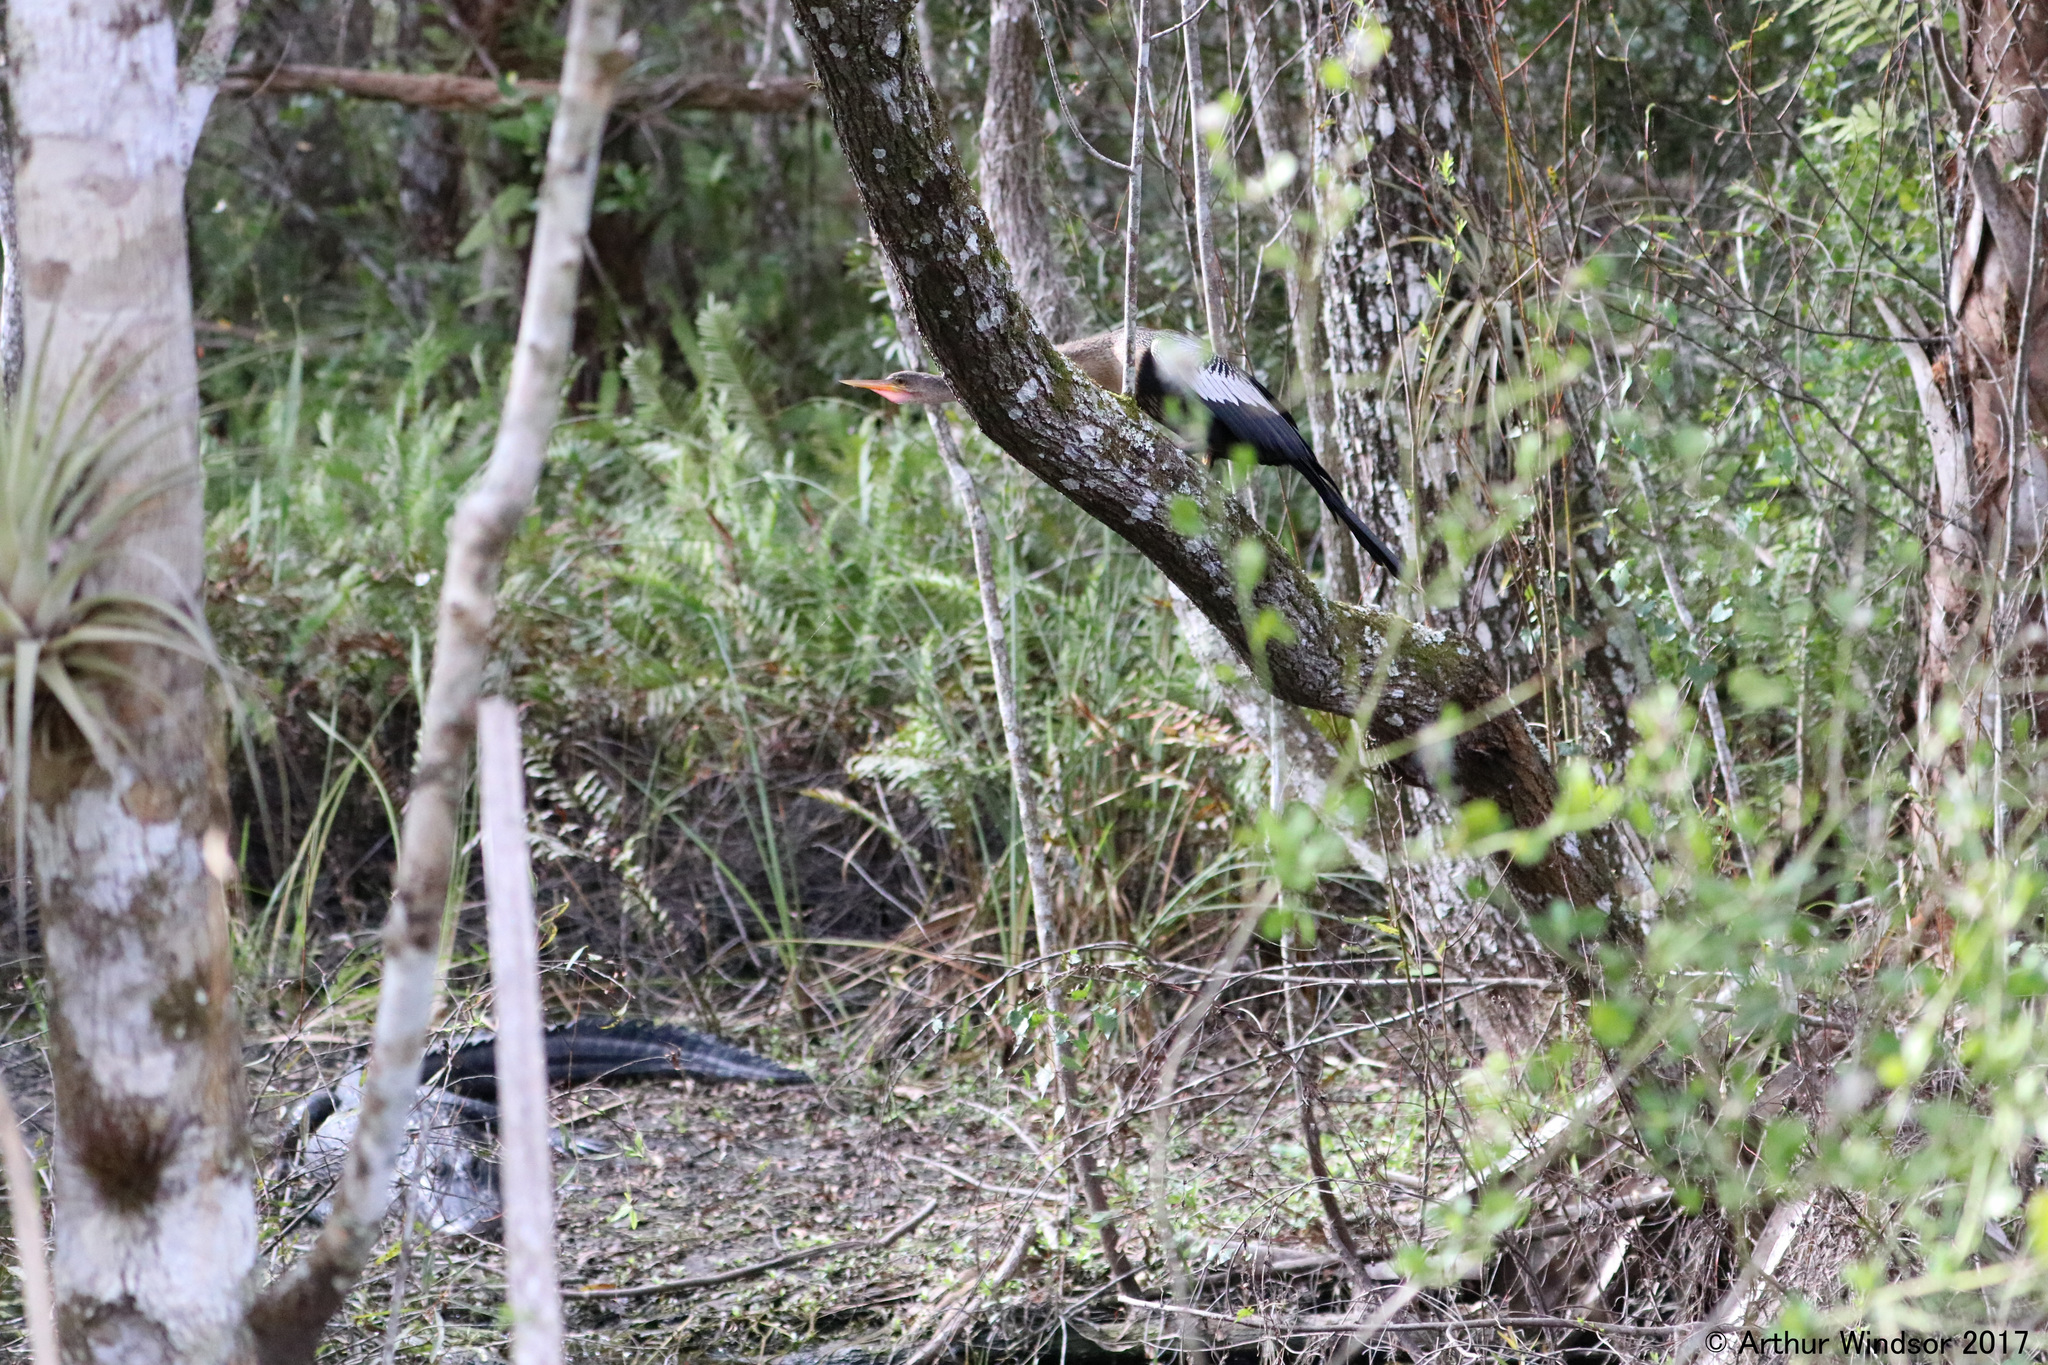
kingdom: Animalia
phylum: Chordata
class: Aves
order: Suliformes
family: Anhingidae
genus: Anhinga
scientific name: Anhinga anhinga
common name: Anhinga
